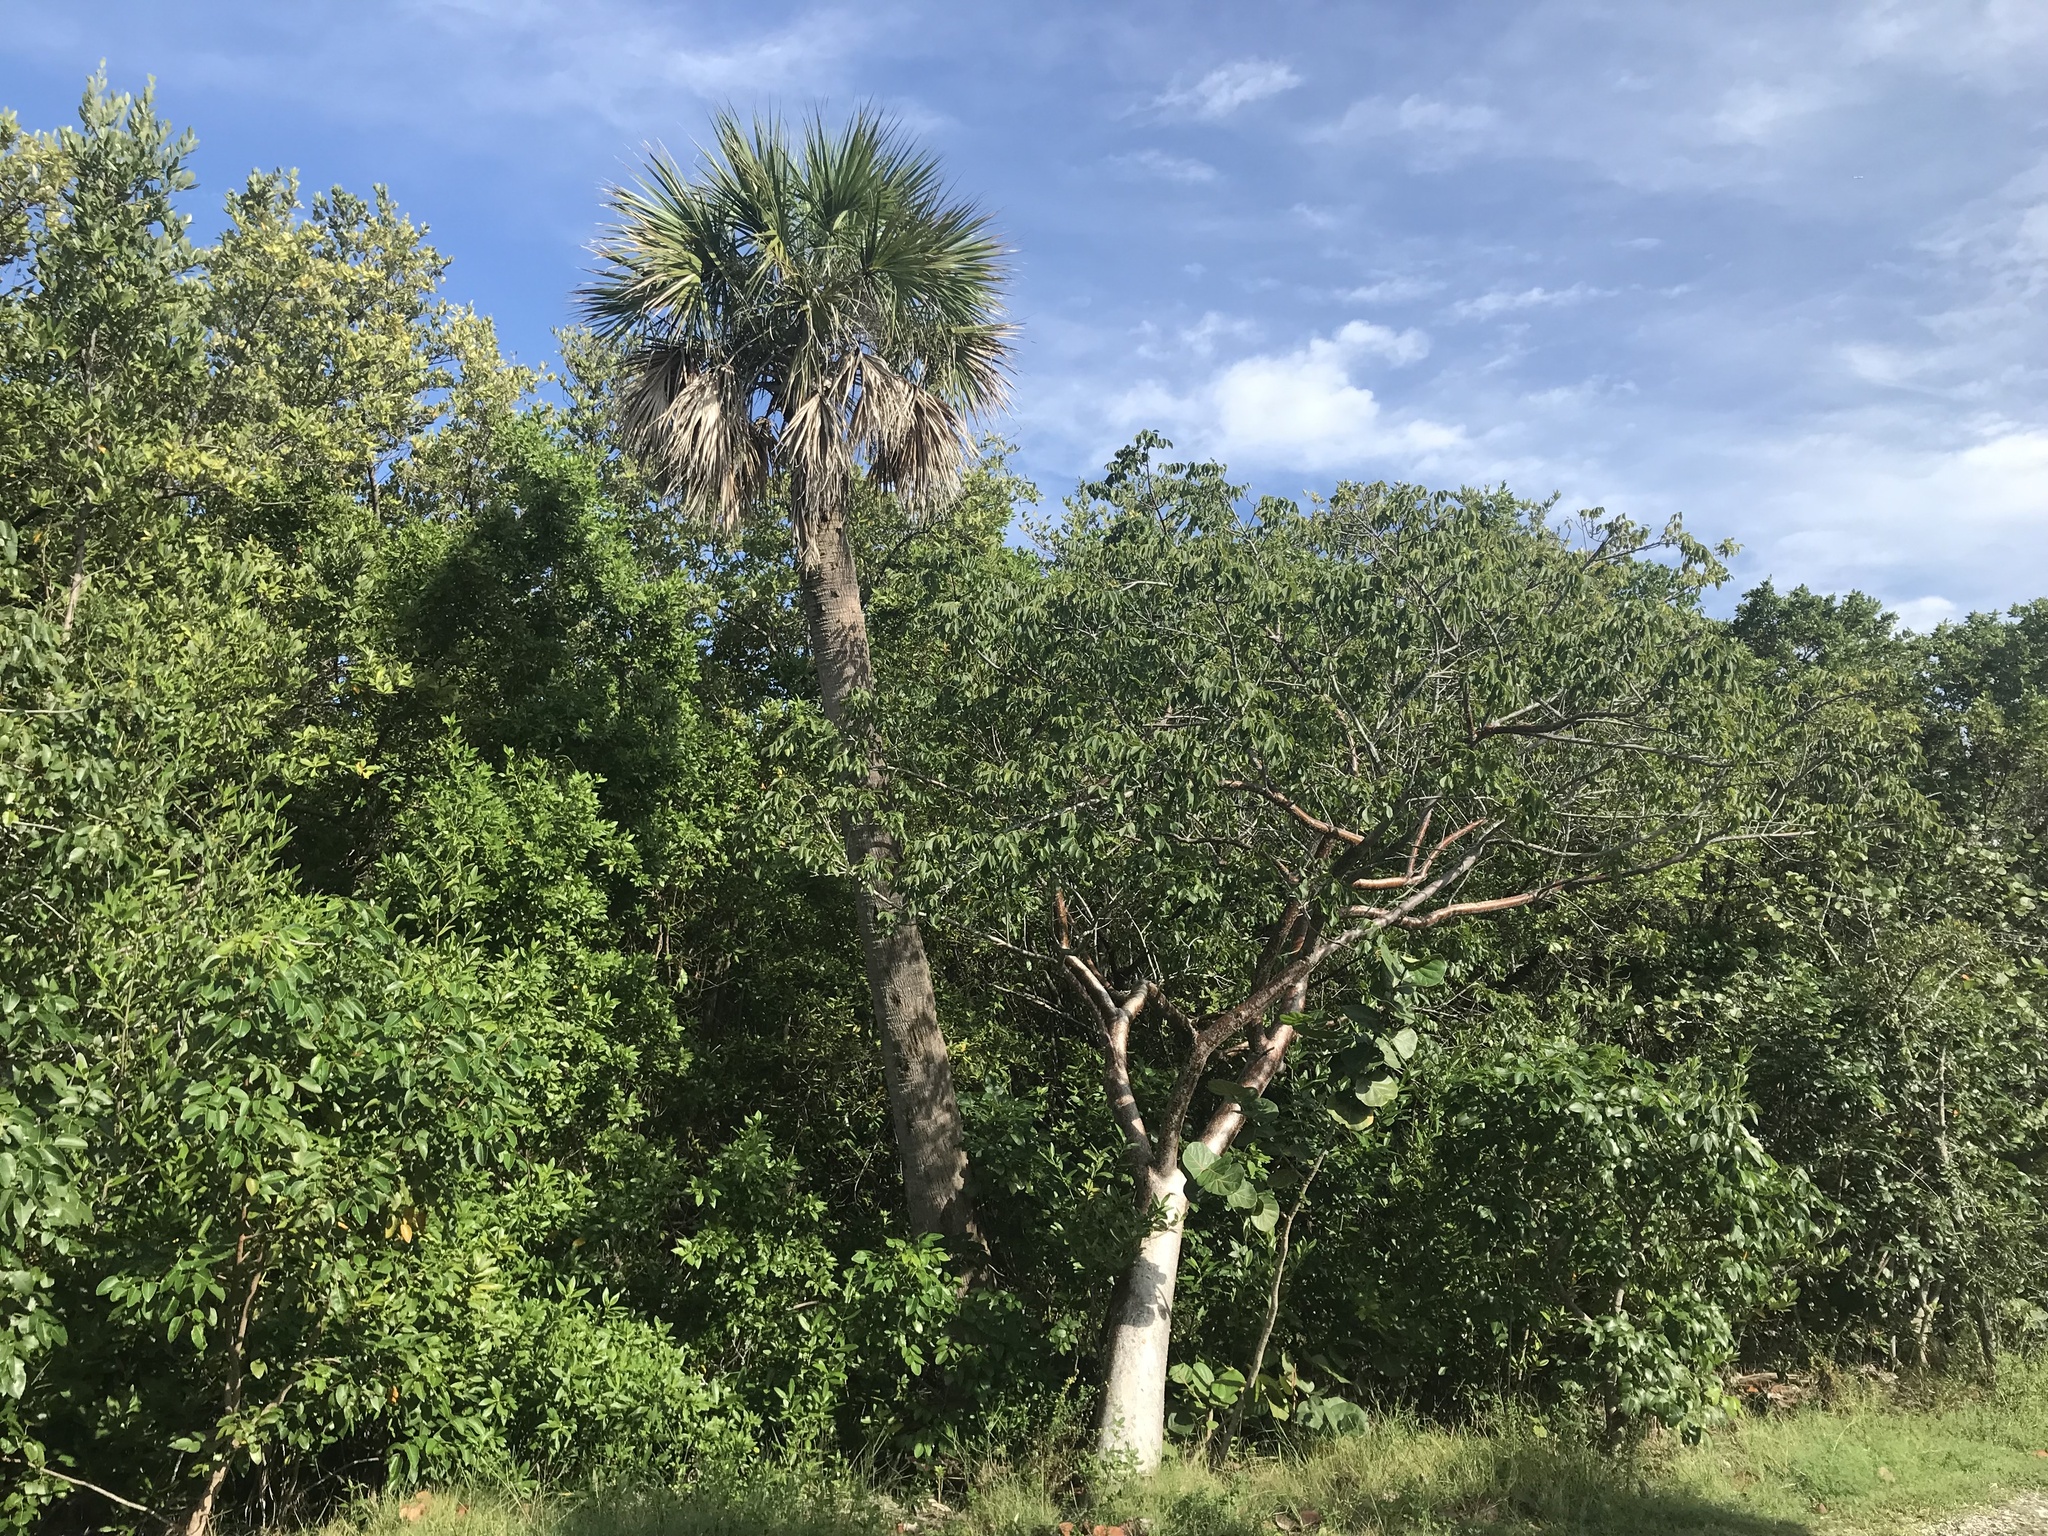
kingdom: Plantae
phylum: Tracheophyta
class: Magnoliopsida
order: Sapindales
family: Burseraceae
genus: Bursera
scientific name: Bursera simaruba
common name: Turpentine tree
